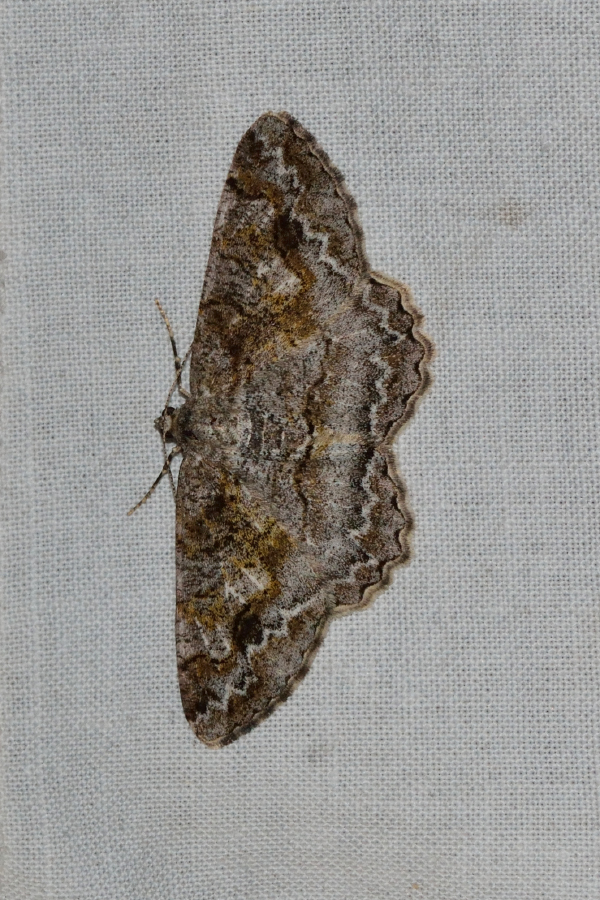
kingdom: Animalia
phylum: Arthropoda
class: Insecta
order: Lepidoptera
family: Geometridae
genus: Alcis
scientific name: Alcis repandata
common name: Mottled beauty
